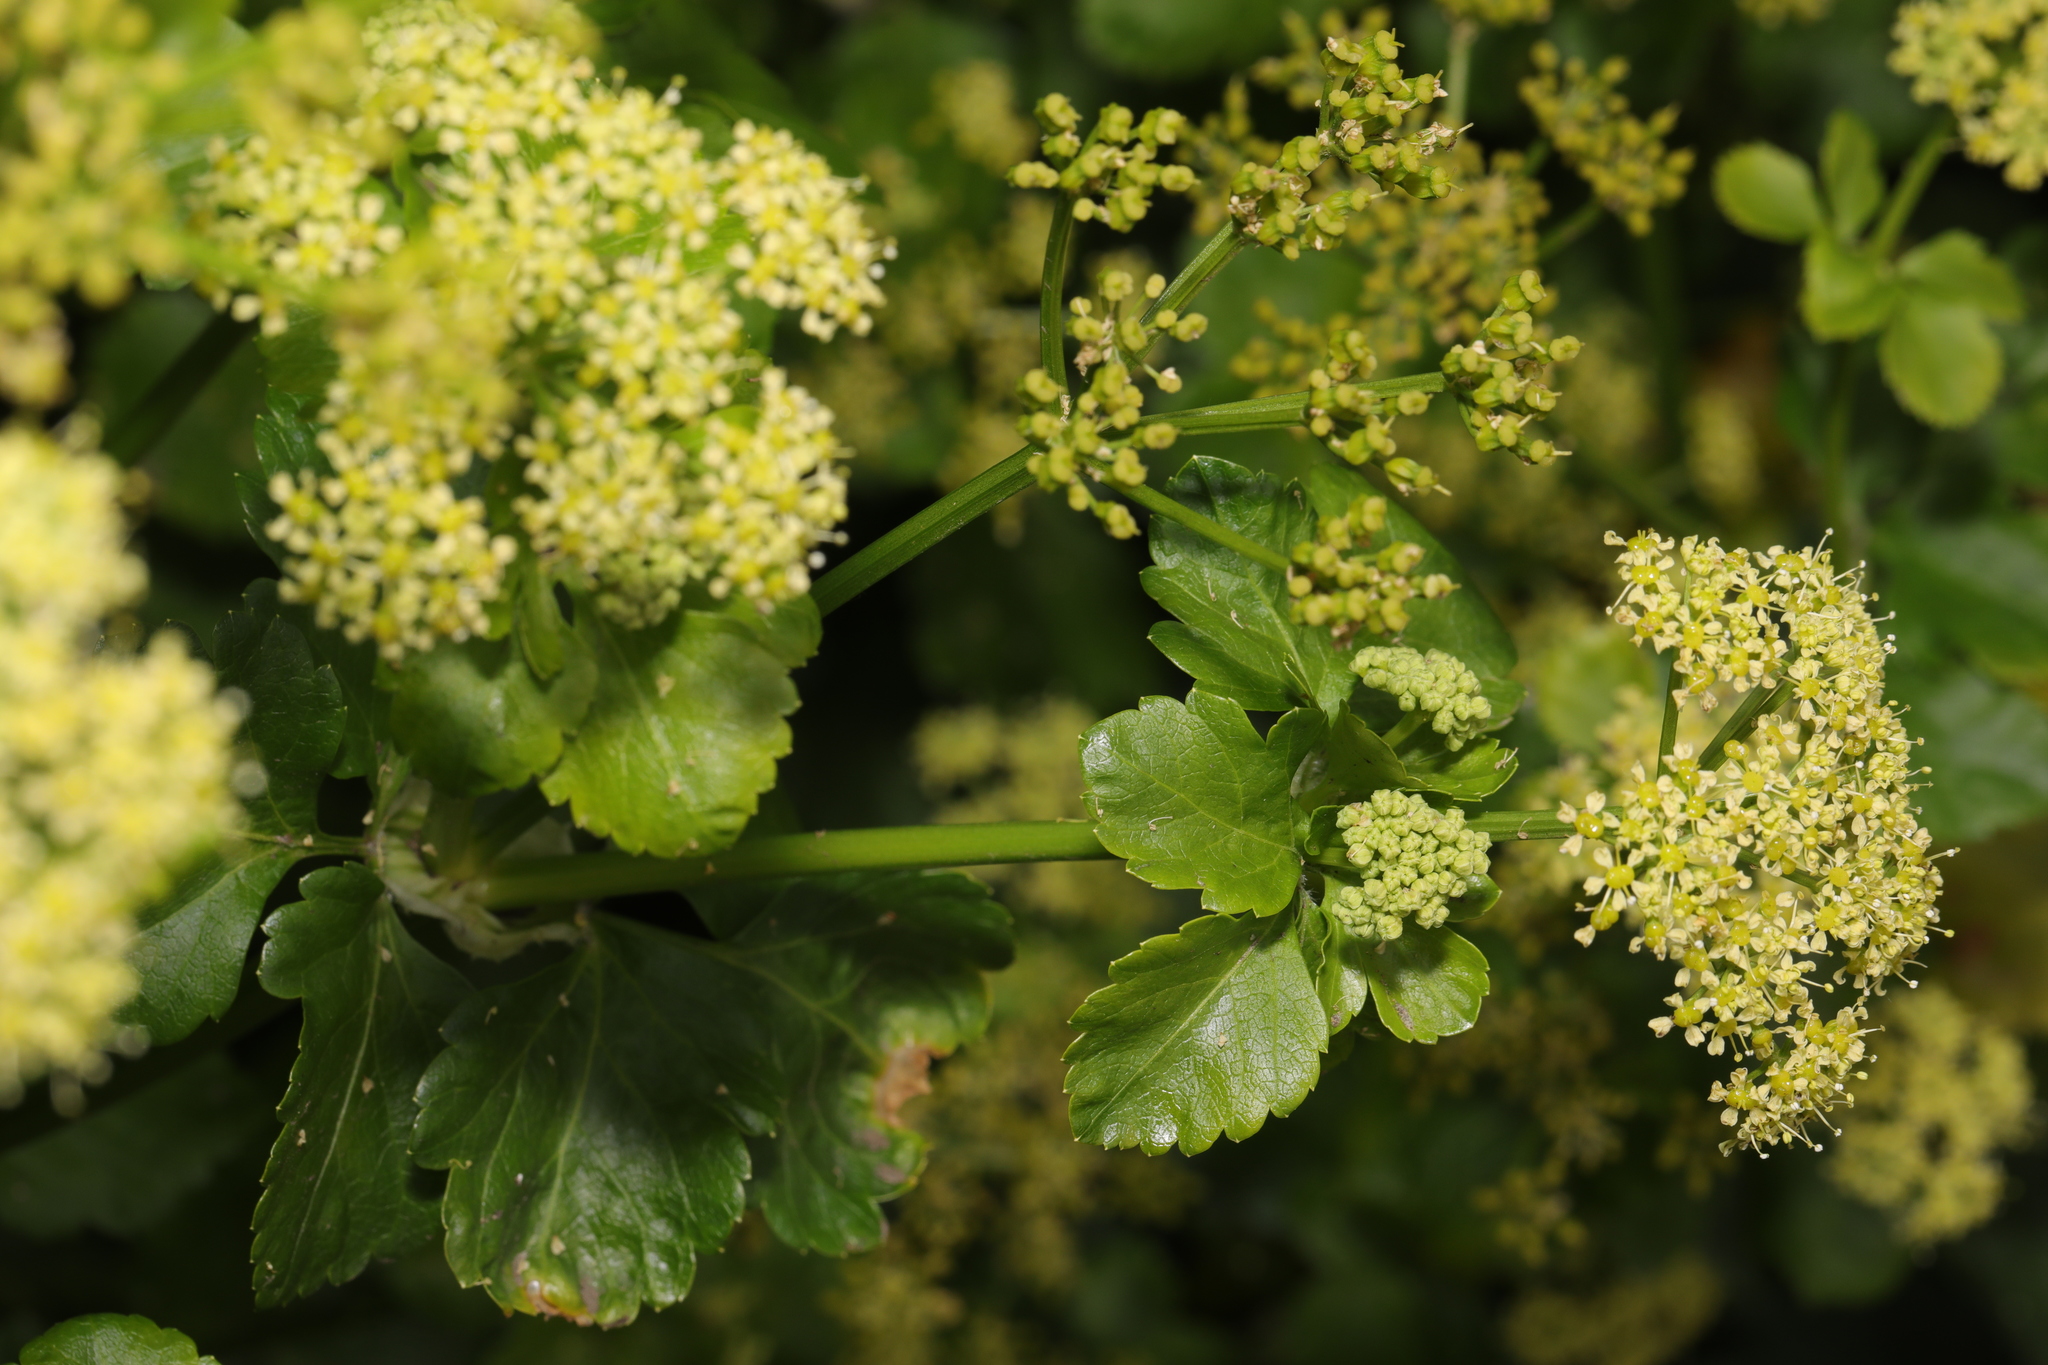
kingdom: Plantae
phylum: Tracheophyta
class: Magnoliopsida
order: Apiales
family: Apiaceae
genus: Smyrnium
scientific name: Smyrnium olusatrum
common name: Alexanders
